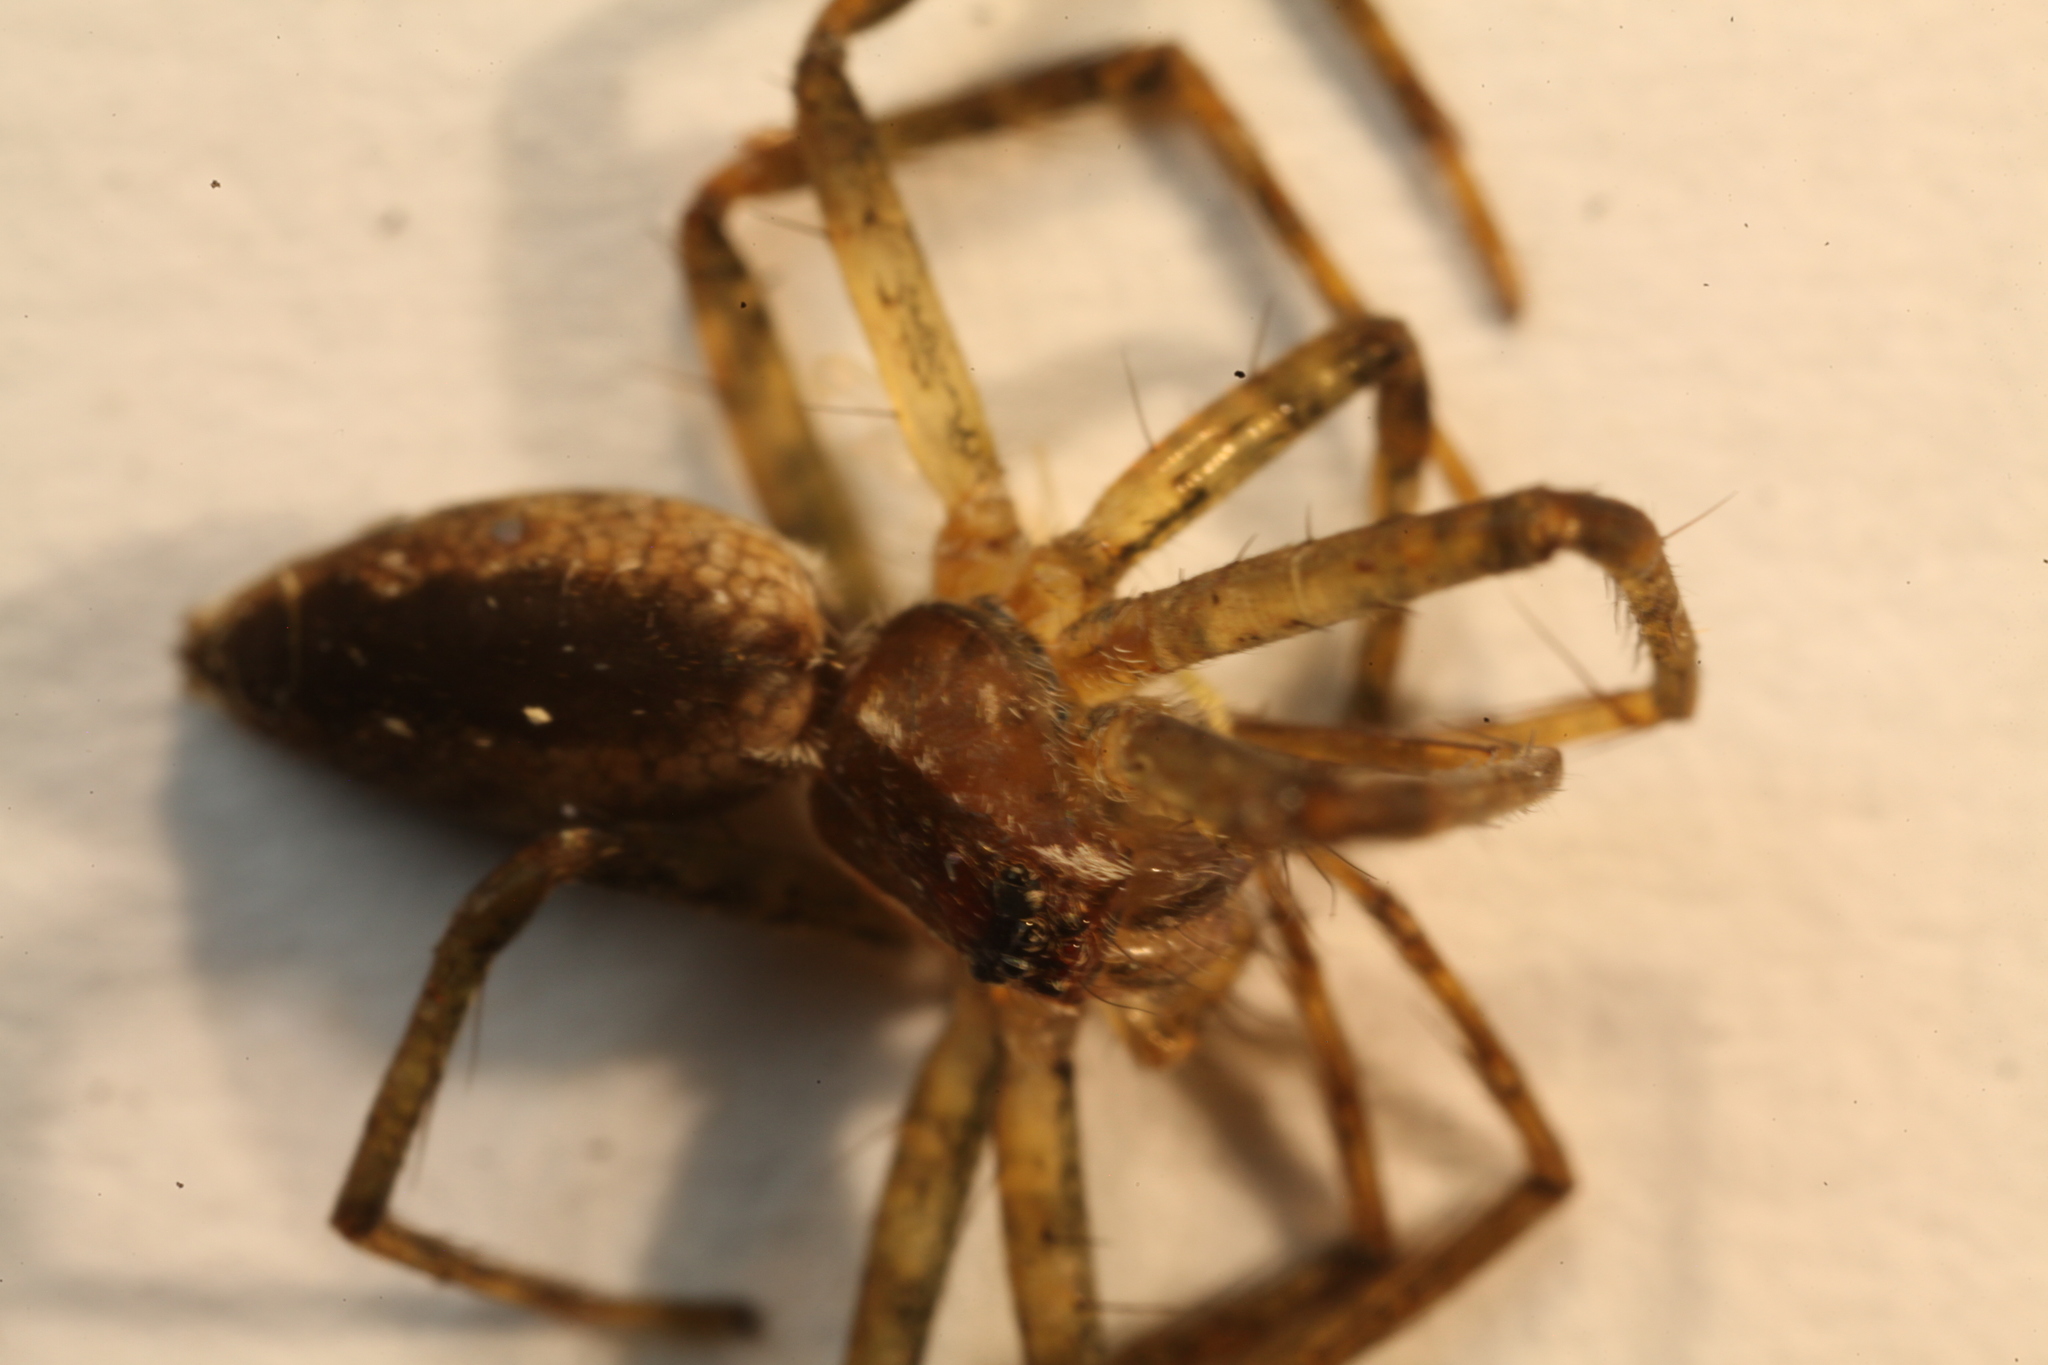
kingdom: Animalia
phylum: Arthropoda
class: Arachnida
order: Araneae
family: Pisauridae
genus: Pisaurina
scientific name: Pisaurina mira
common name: American nursery web spider
